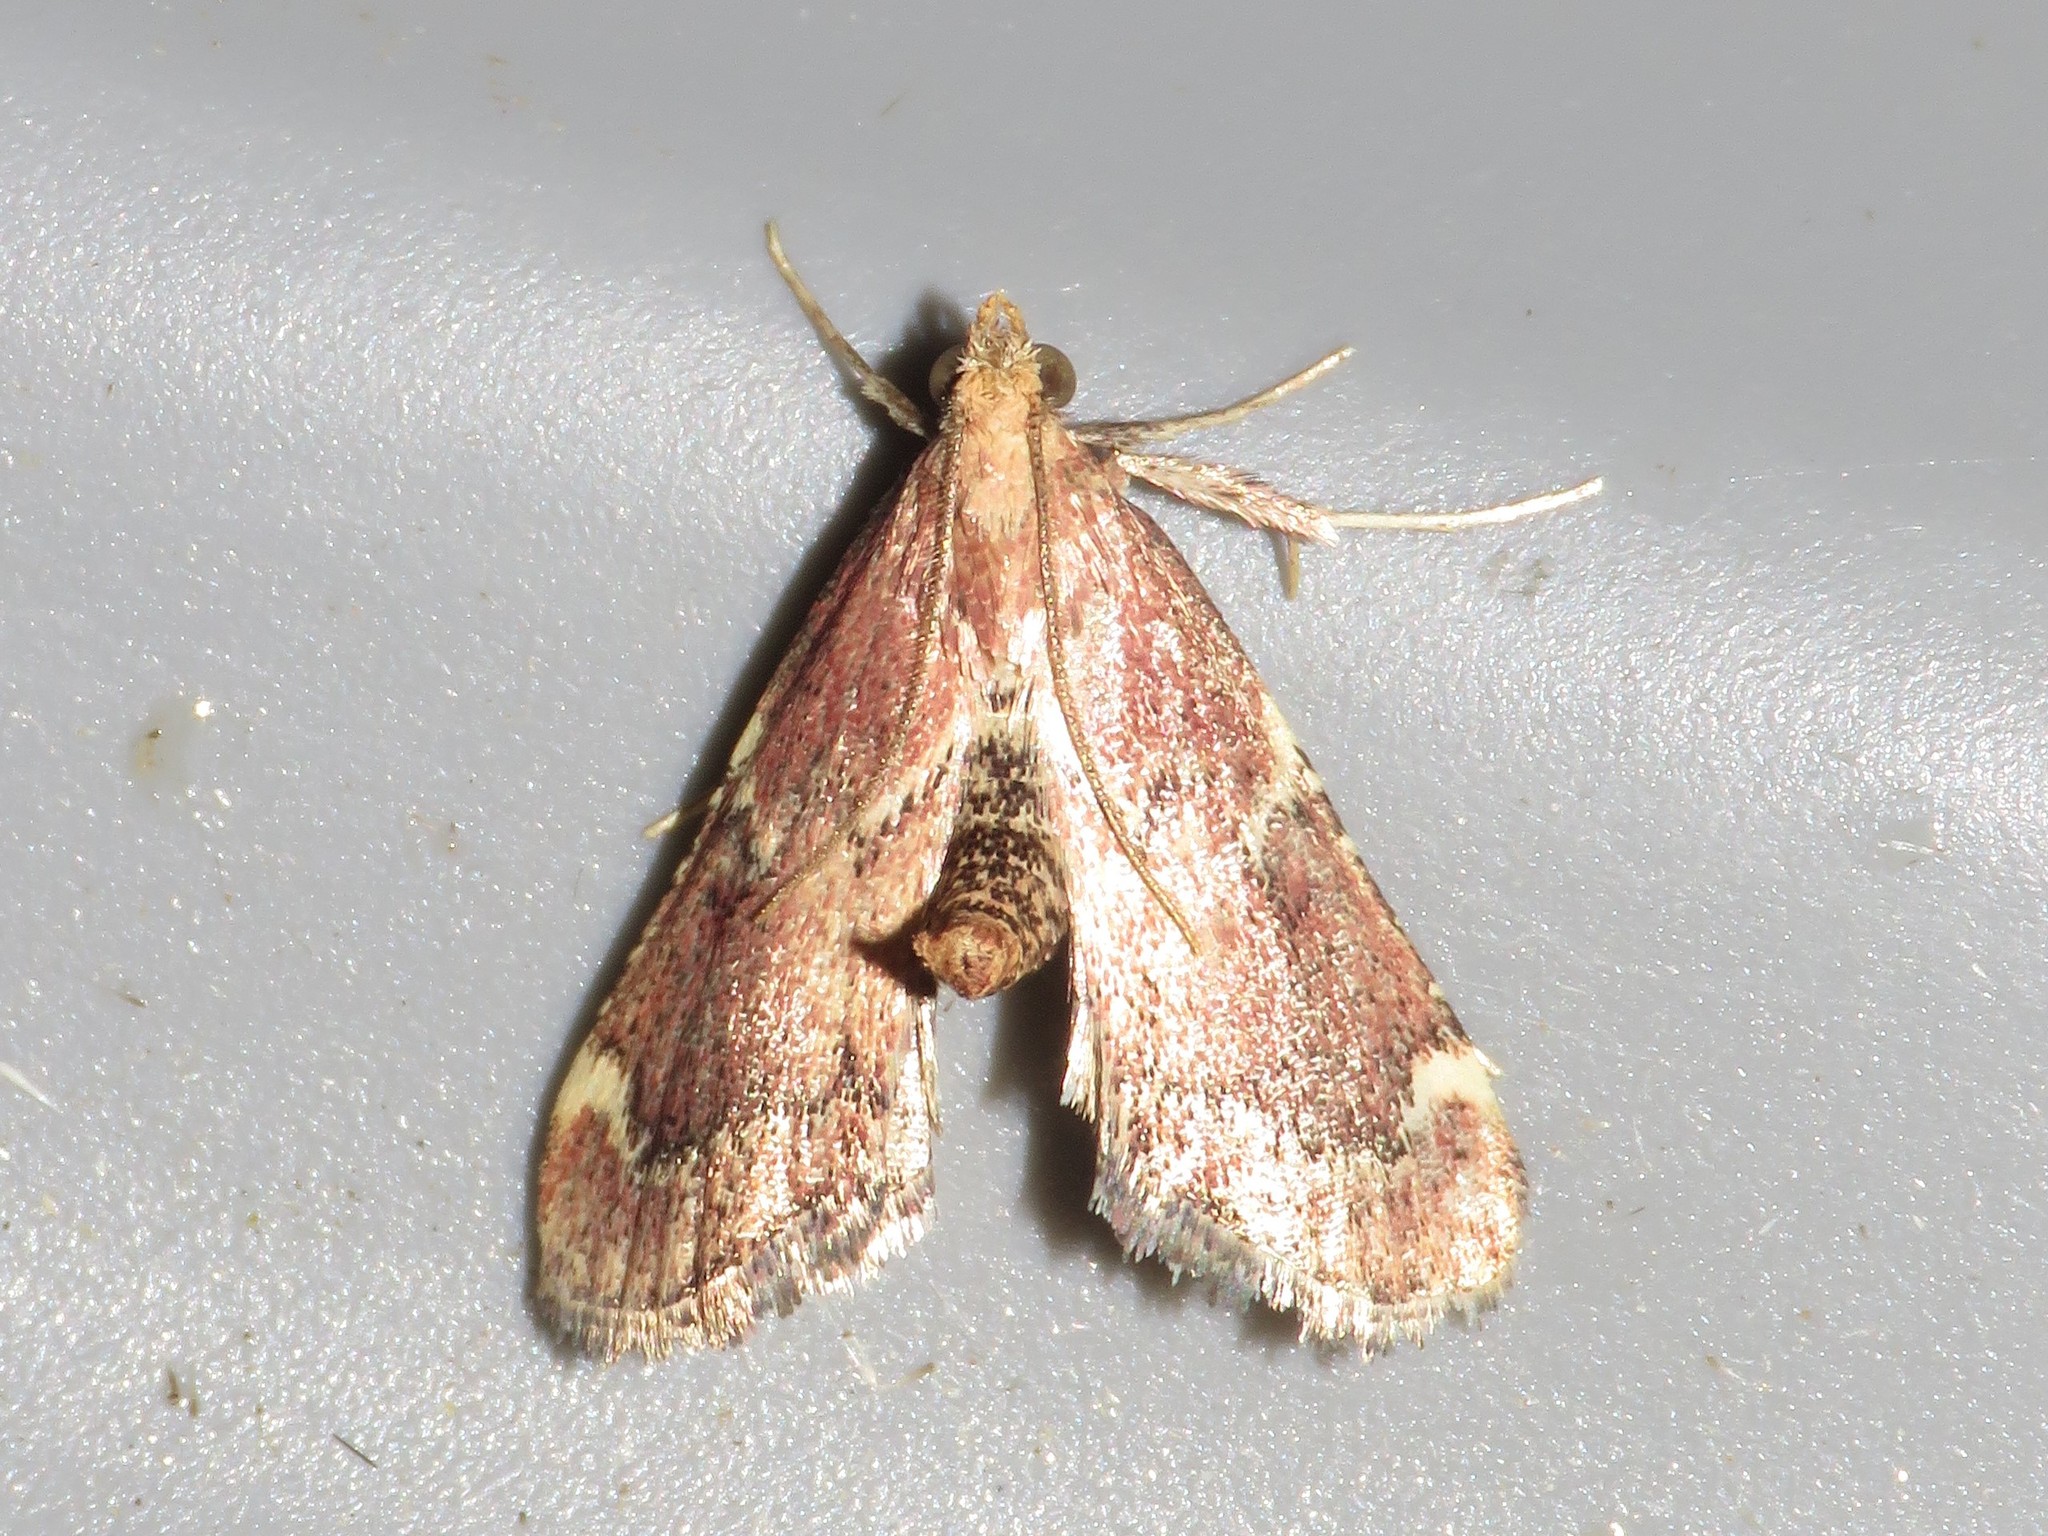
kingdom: Animalia
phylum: Arthropoda
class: Insecta
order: Lepidoptera
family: Pyralidae
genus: Hypsopygia
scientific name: Hypsopygia intermedialis
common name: Red-shawled moth
